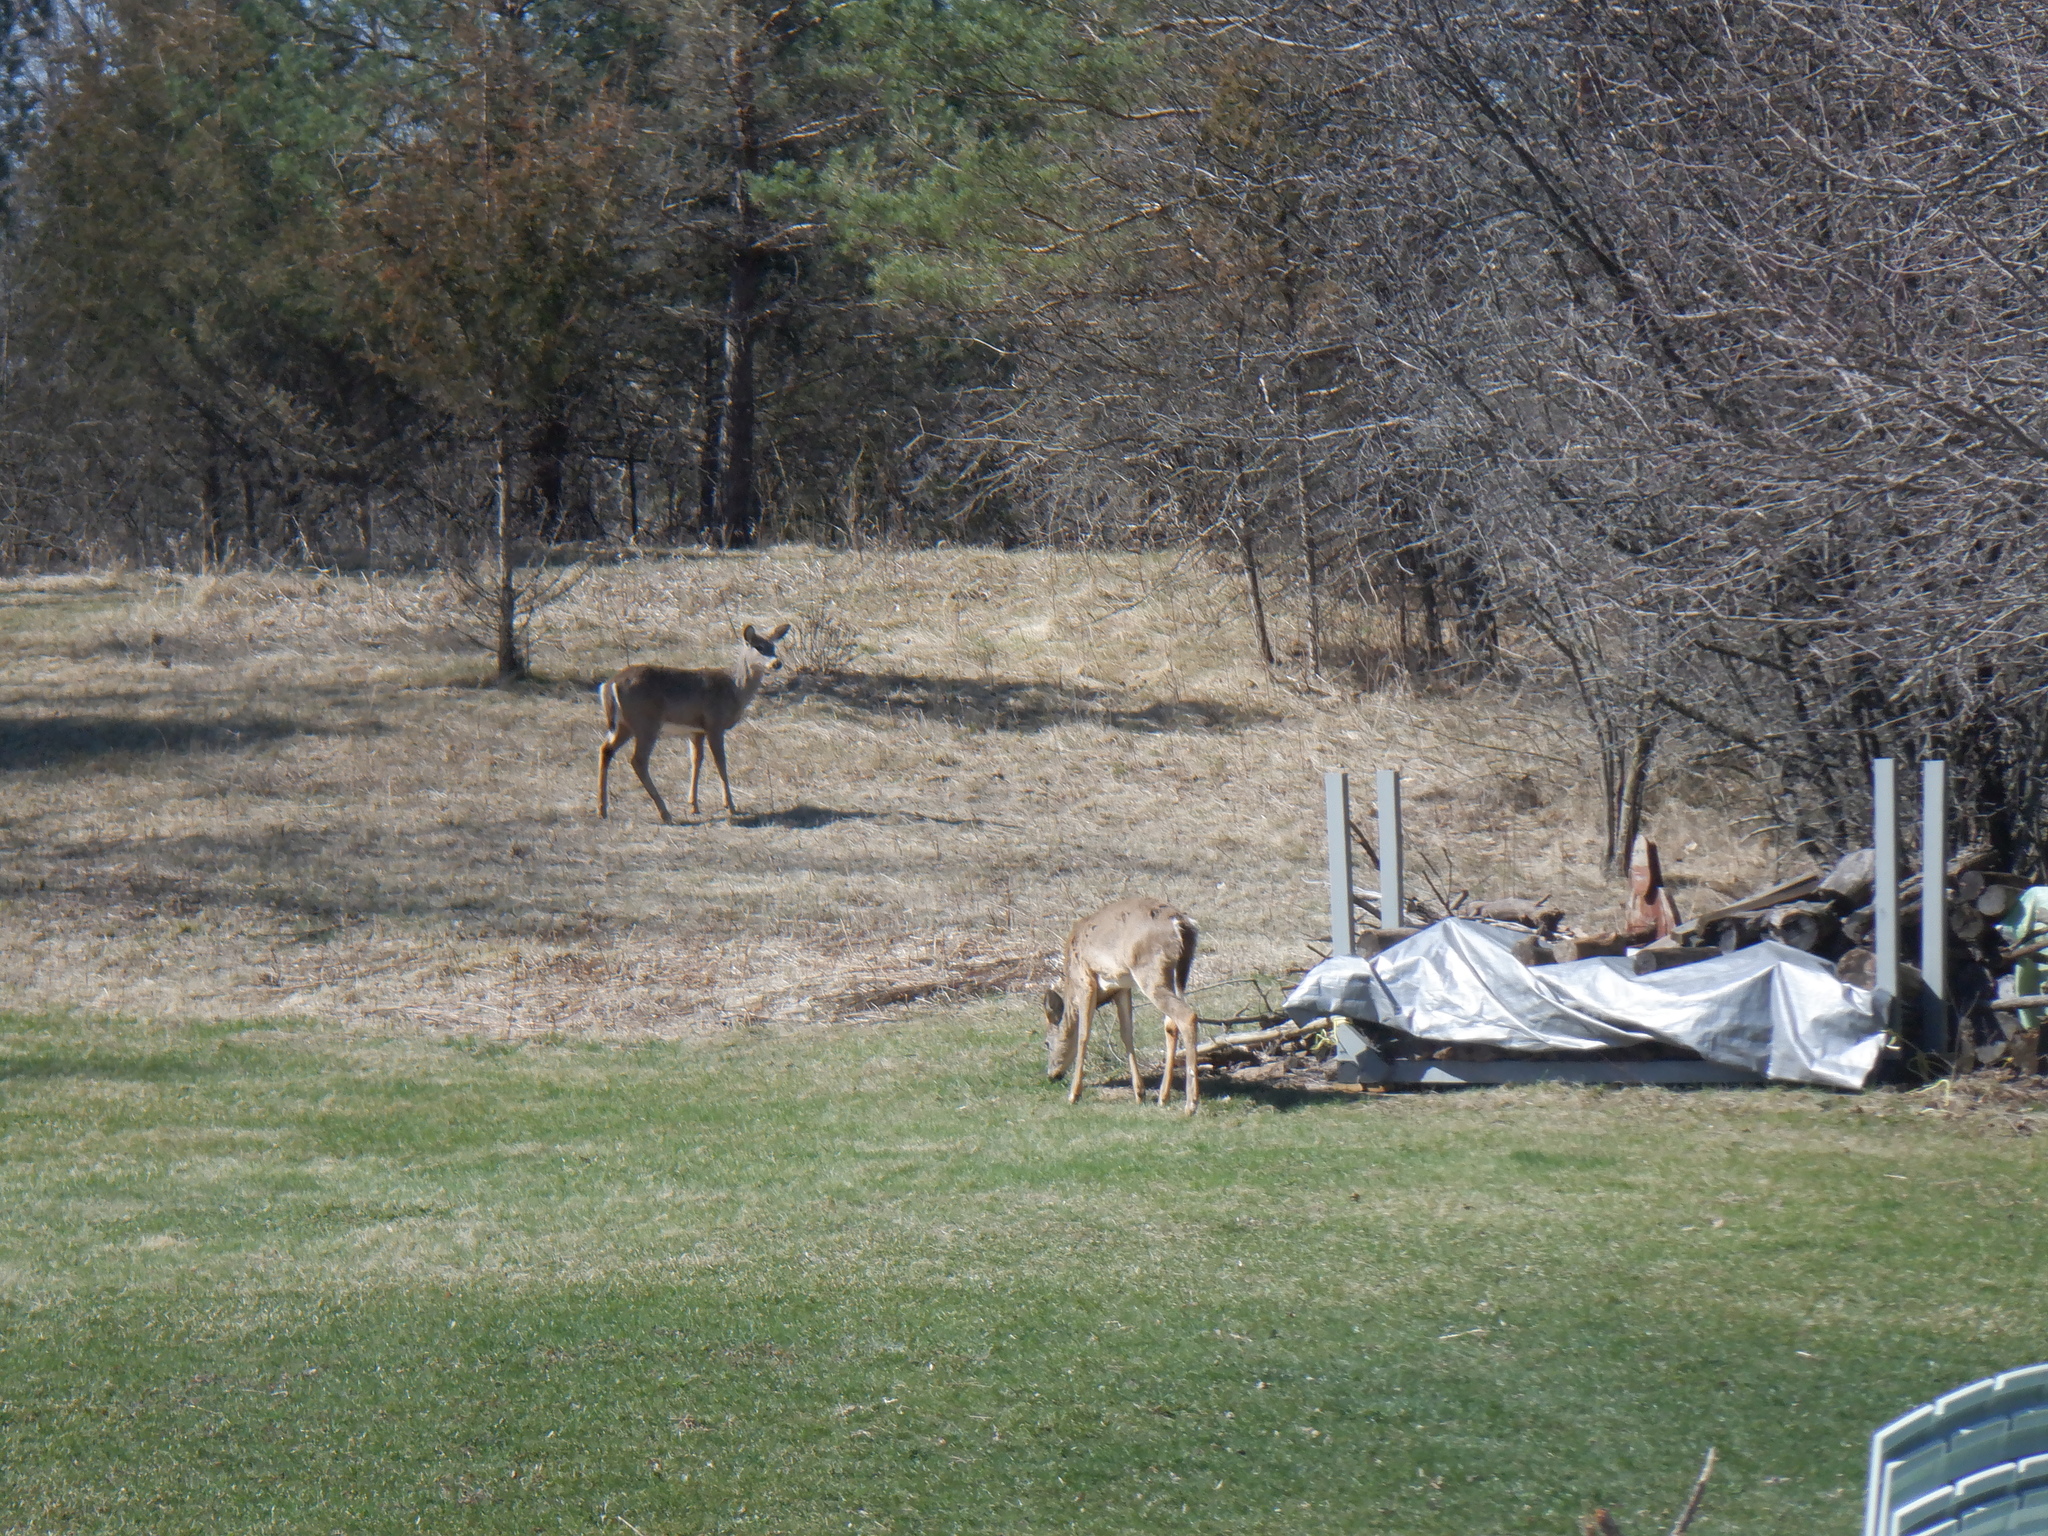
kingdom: Animalia
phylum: Chordata
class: Mammalia
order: Artiodactyla
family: Cervidae
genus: Odocoileus
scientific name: Odocoileus virginianus
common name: White-tailed deer
